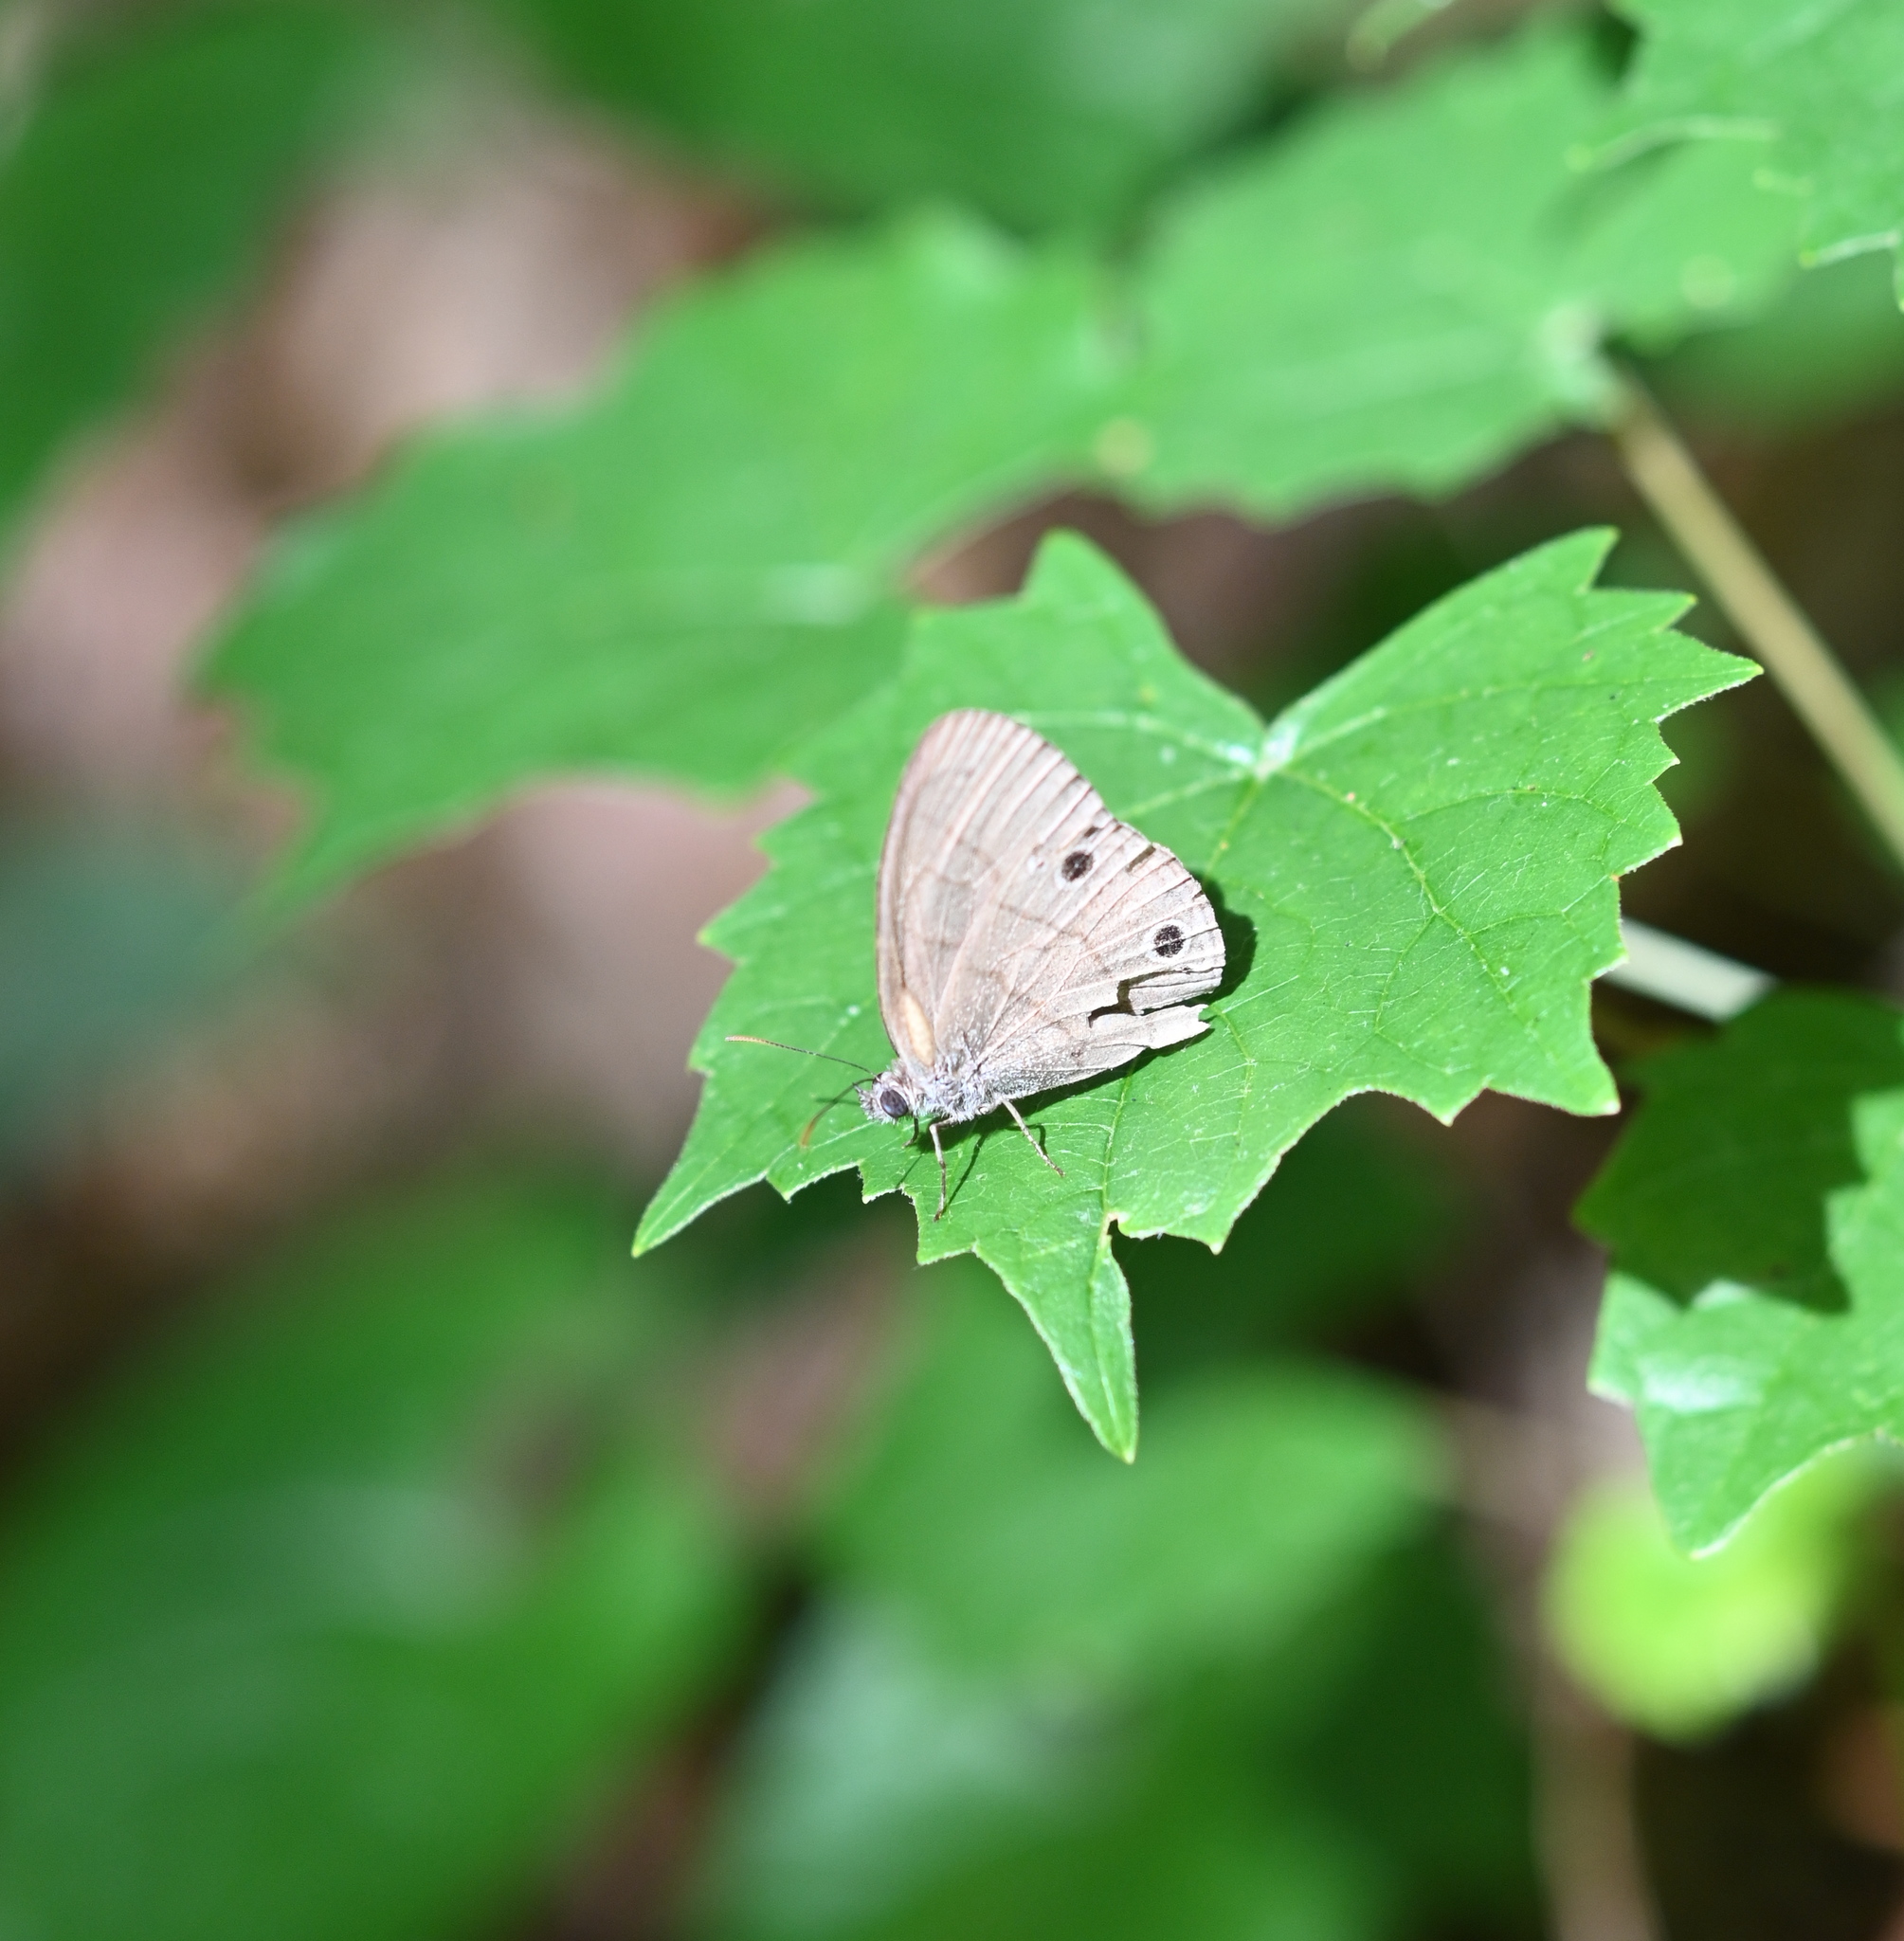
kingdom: Animalia
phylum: Arthropoda
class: Insecta
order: Lepidoptera
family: Nymphalidae
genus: Hermeuptychia
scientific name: Hermeuptychia hermes
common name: Hermes satyr
